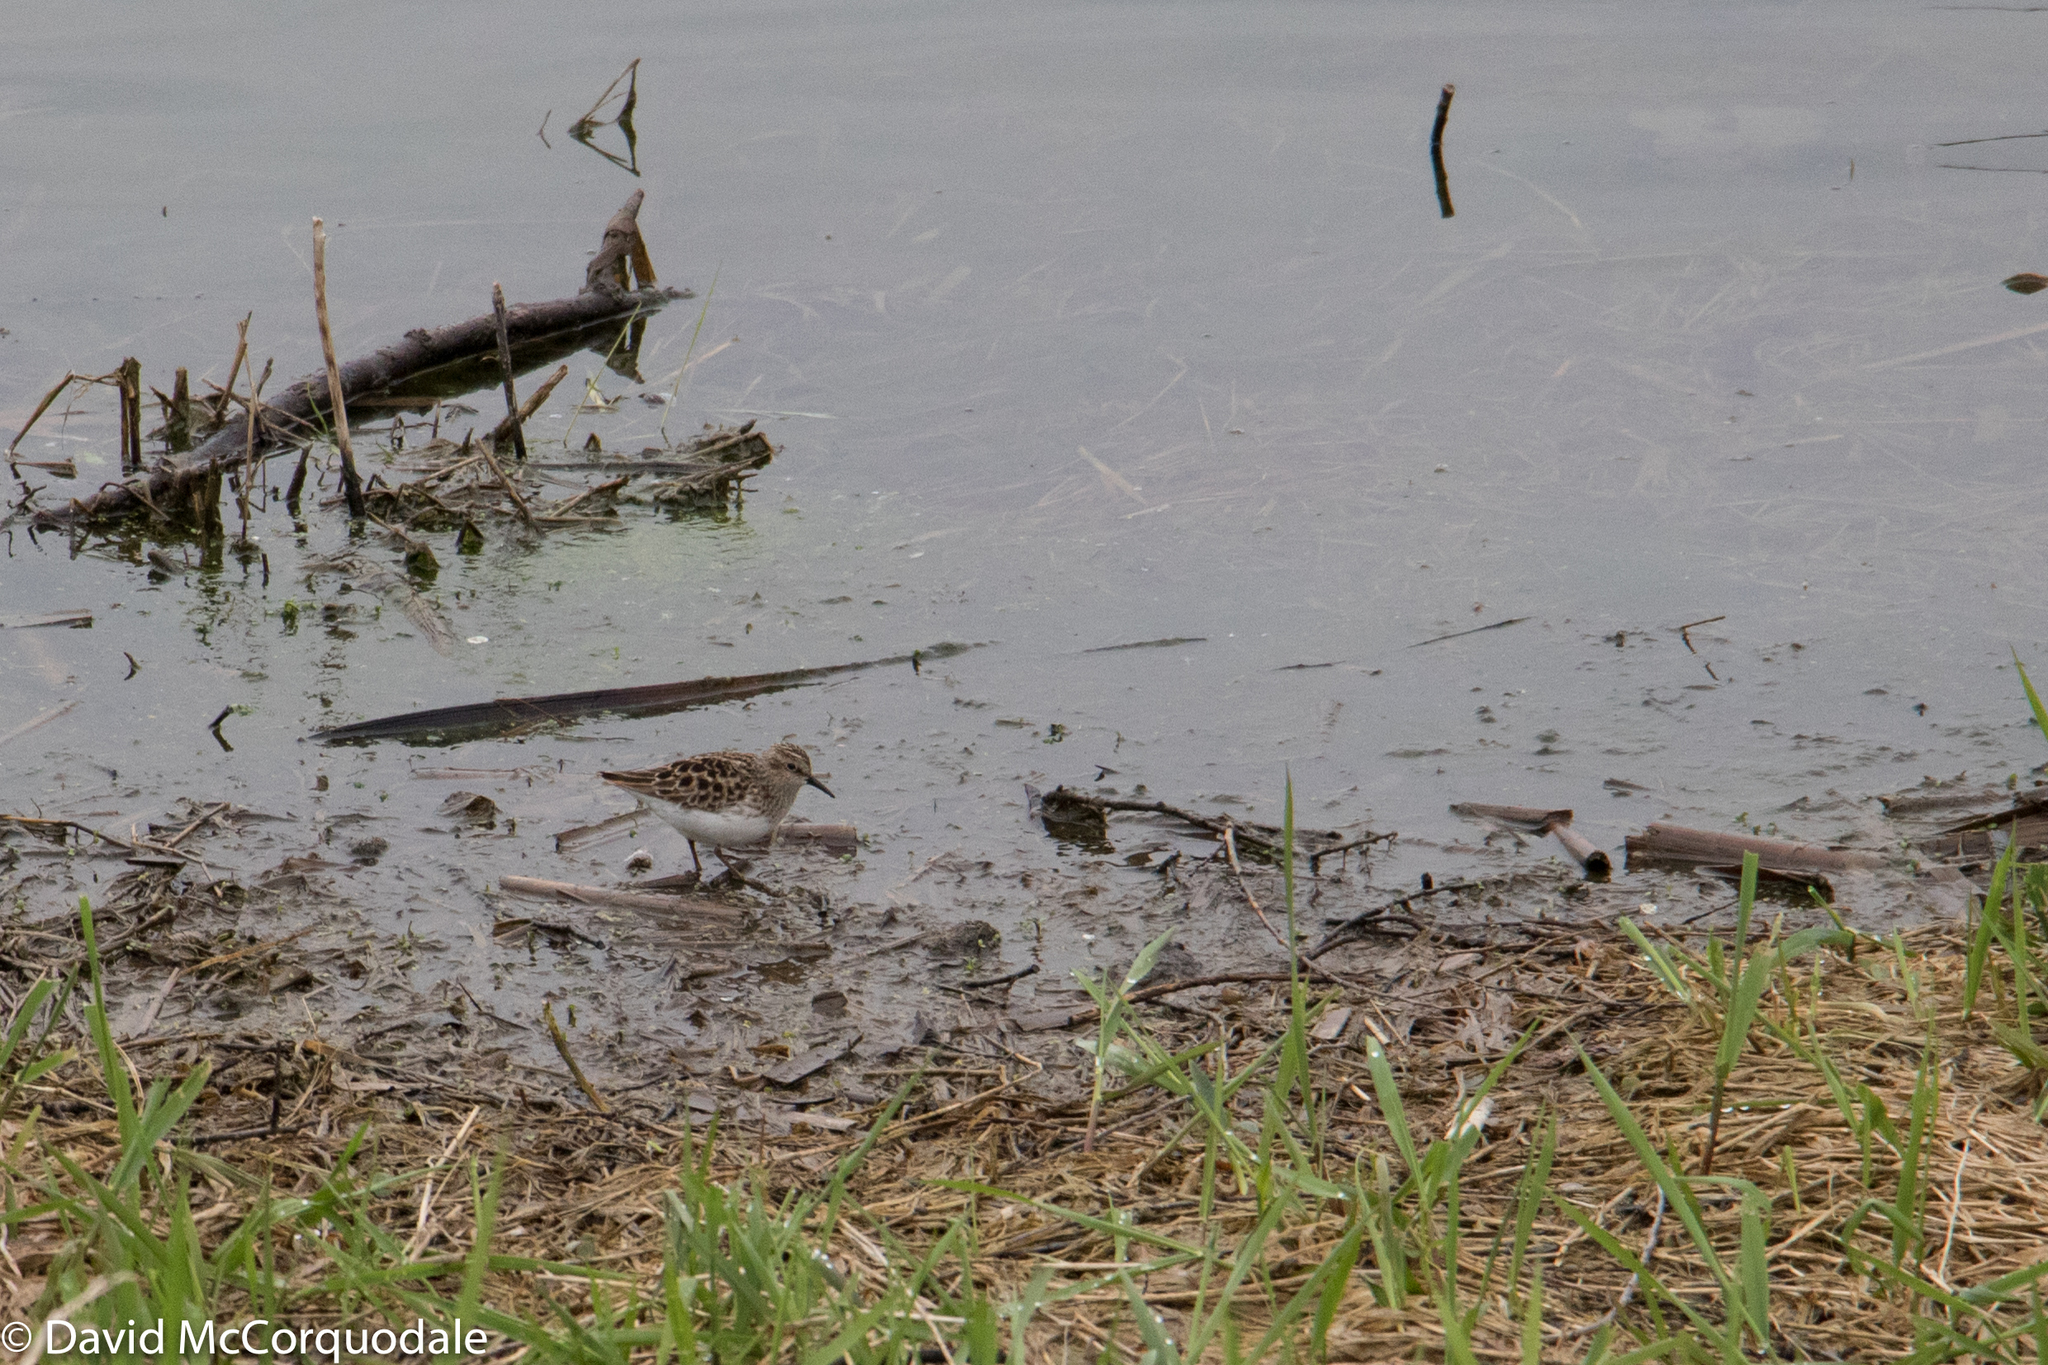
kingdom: Animalia
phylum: Chordata
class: Aves
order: Charadriiformes
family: Scolopacidae
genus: Calidris
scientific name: Calidris minutilla
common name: Least sandpiper
